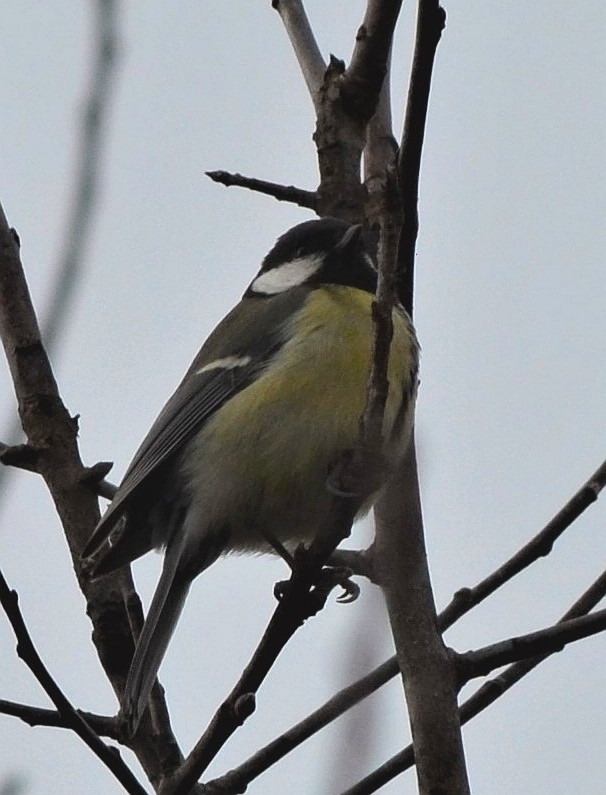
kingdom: Animalia
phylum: Chordata
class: Aves
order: Passeriformes
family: Paridae
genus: Parus
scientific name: Parus major
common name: Great tit
